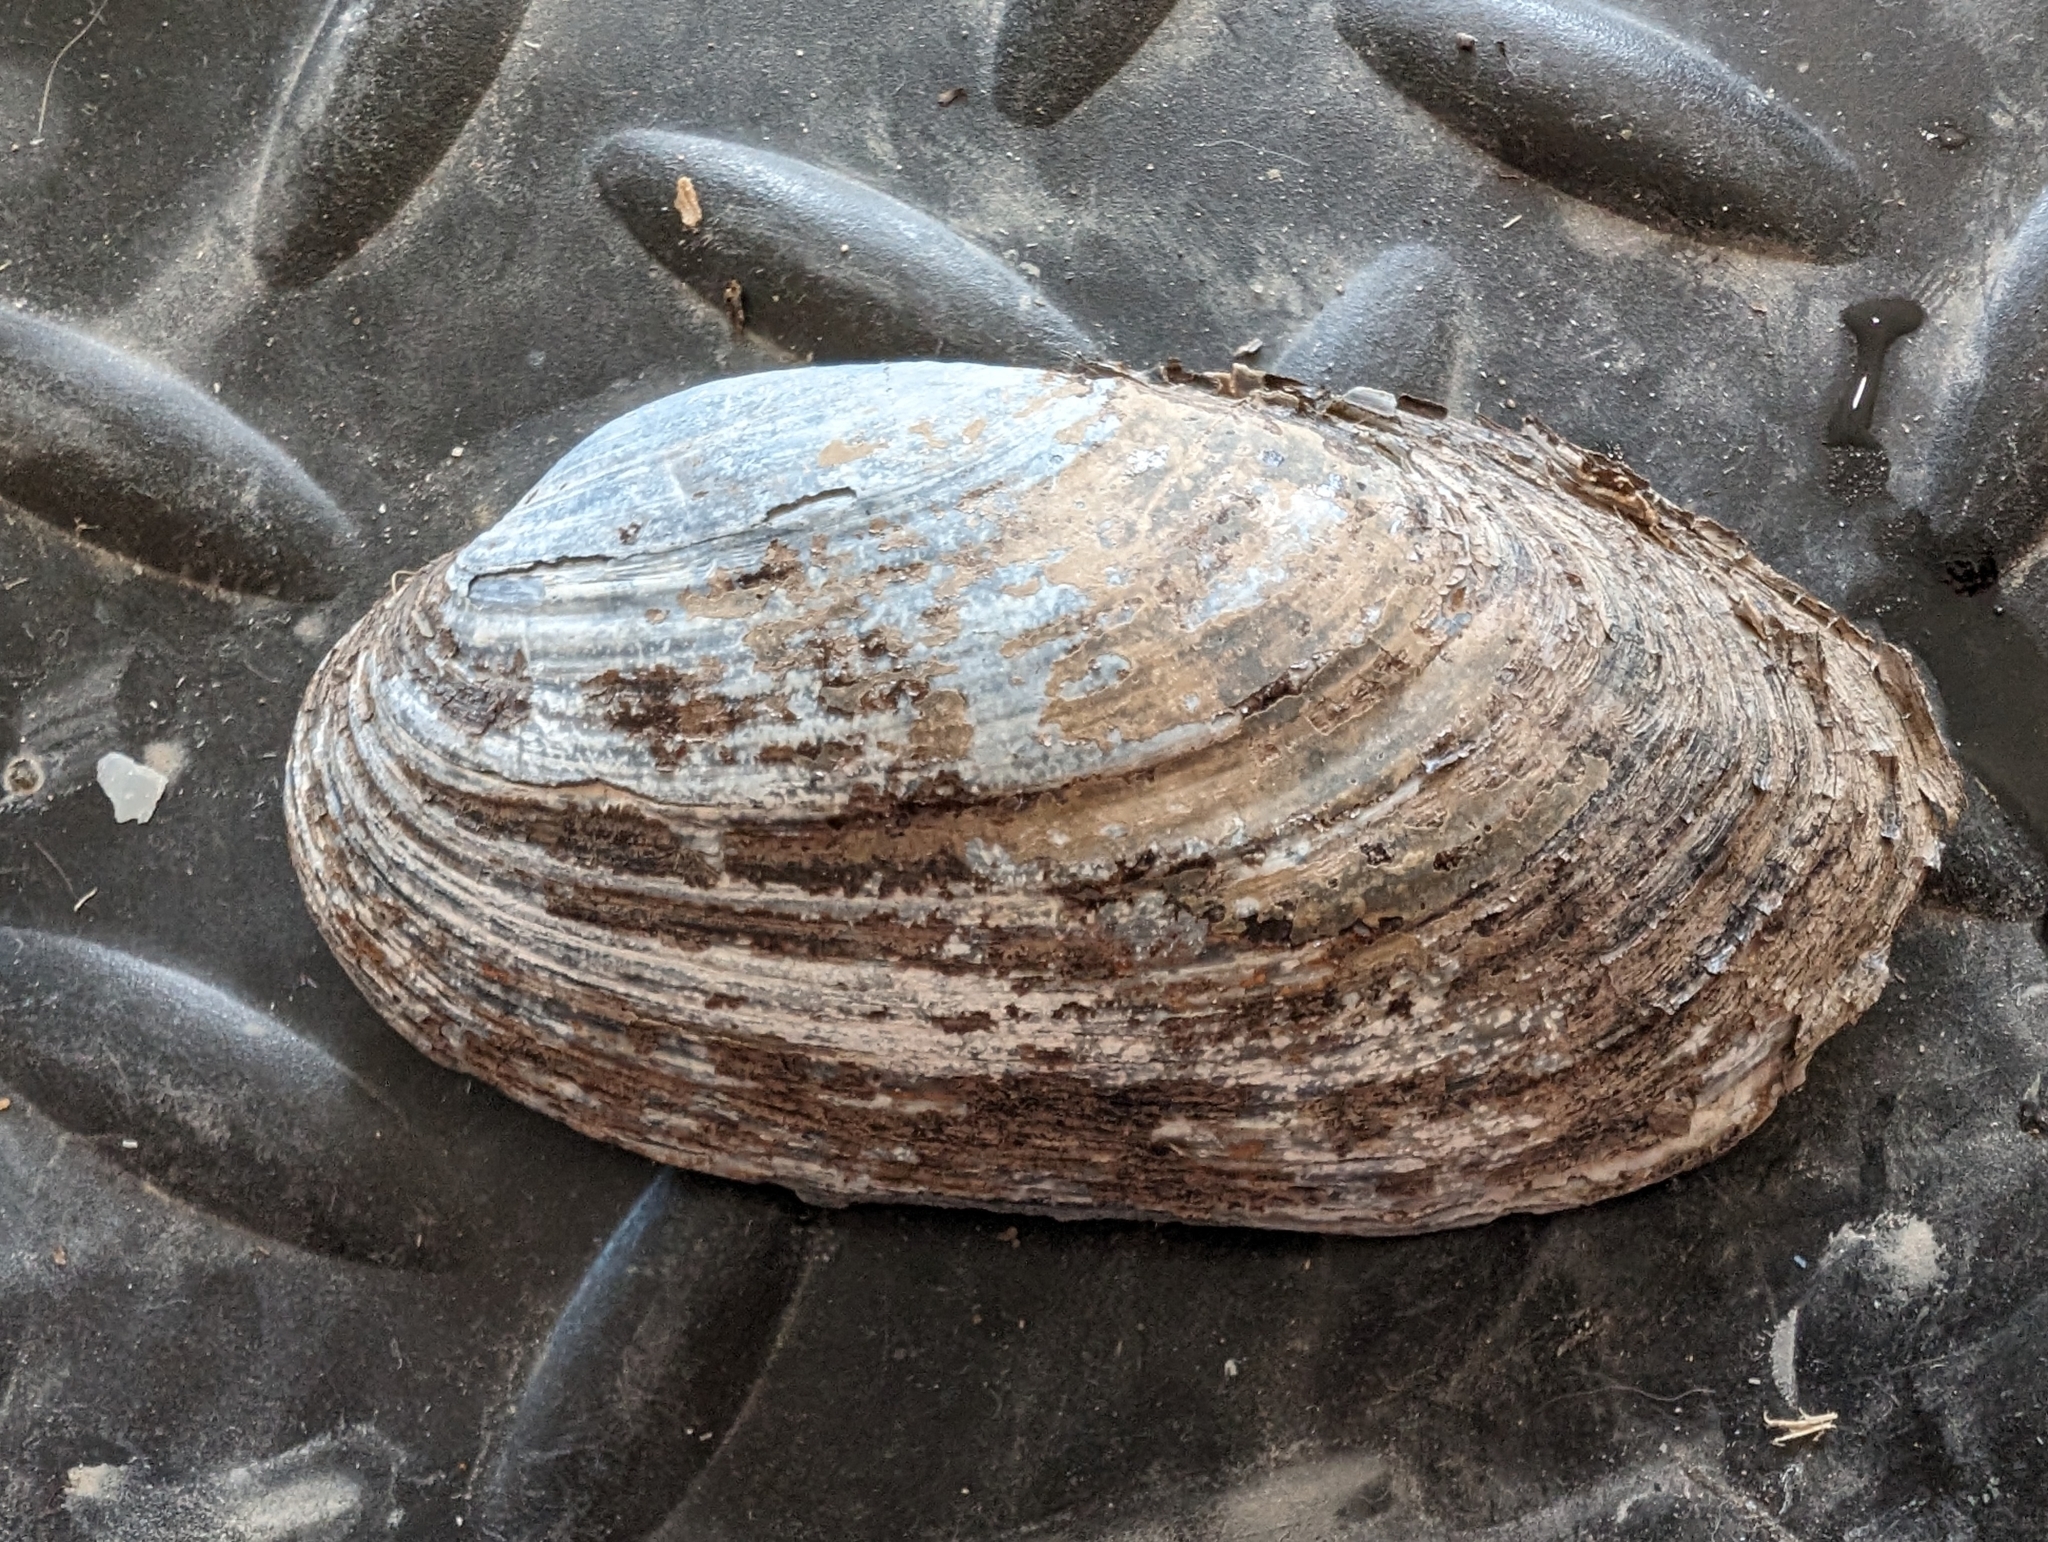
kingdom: Animalia
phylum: Mollusca
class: Bivalvia
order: Unionida
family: Unionidae
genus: Lampsilis
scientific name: Lampsilis siliquoidea
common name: Fatmucket
